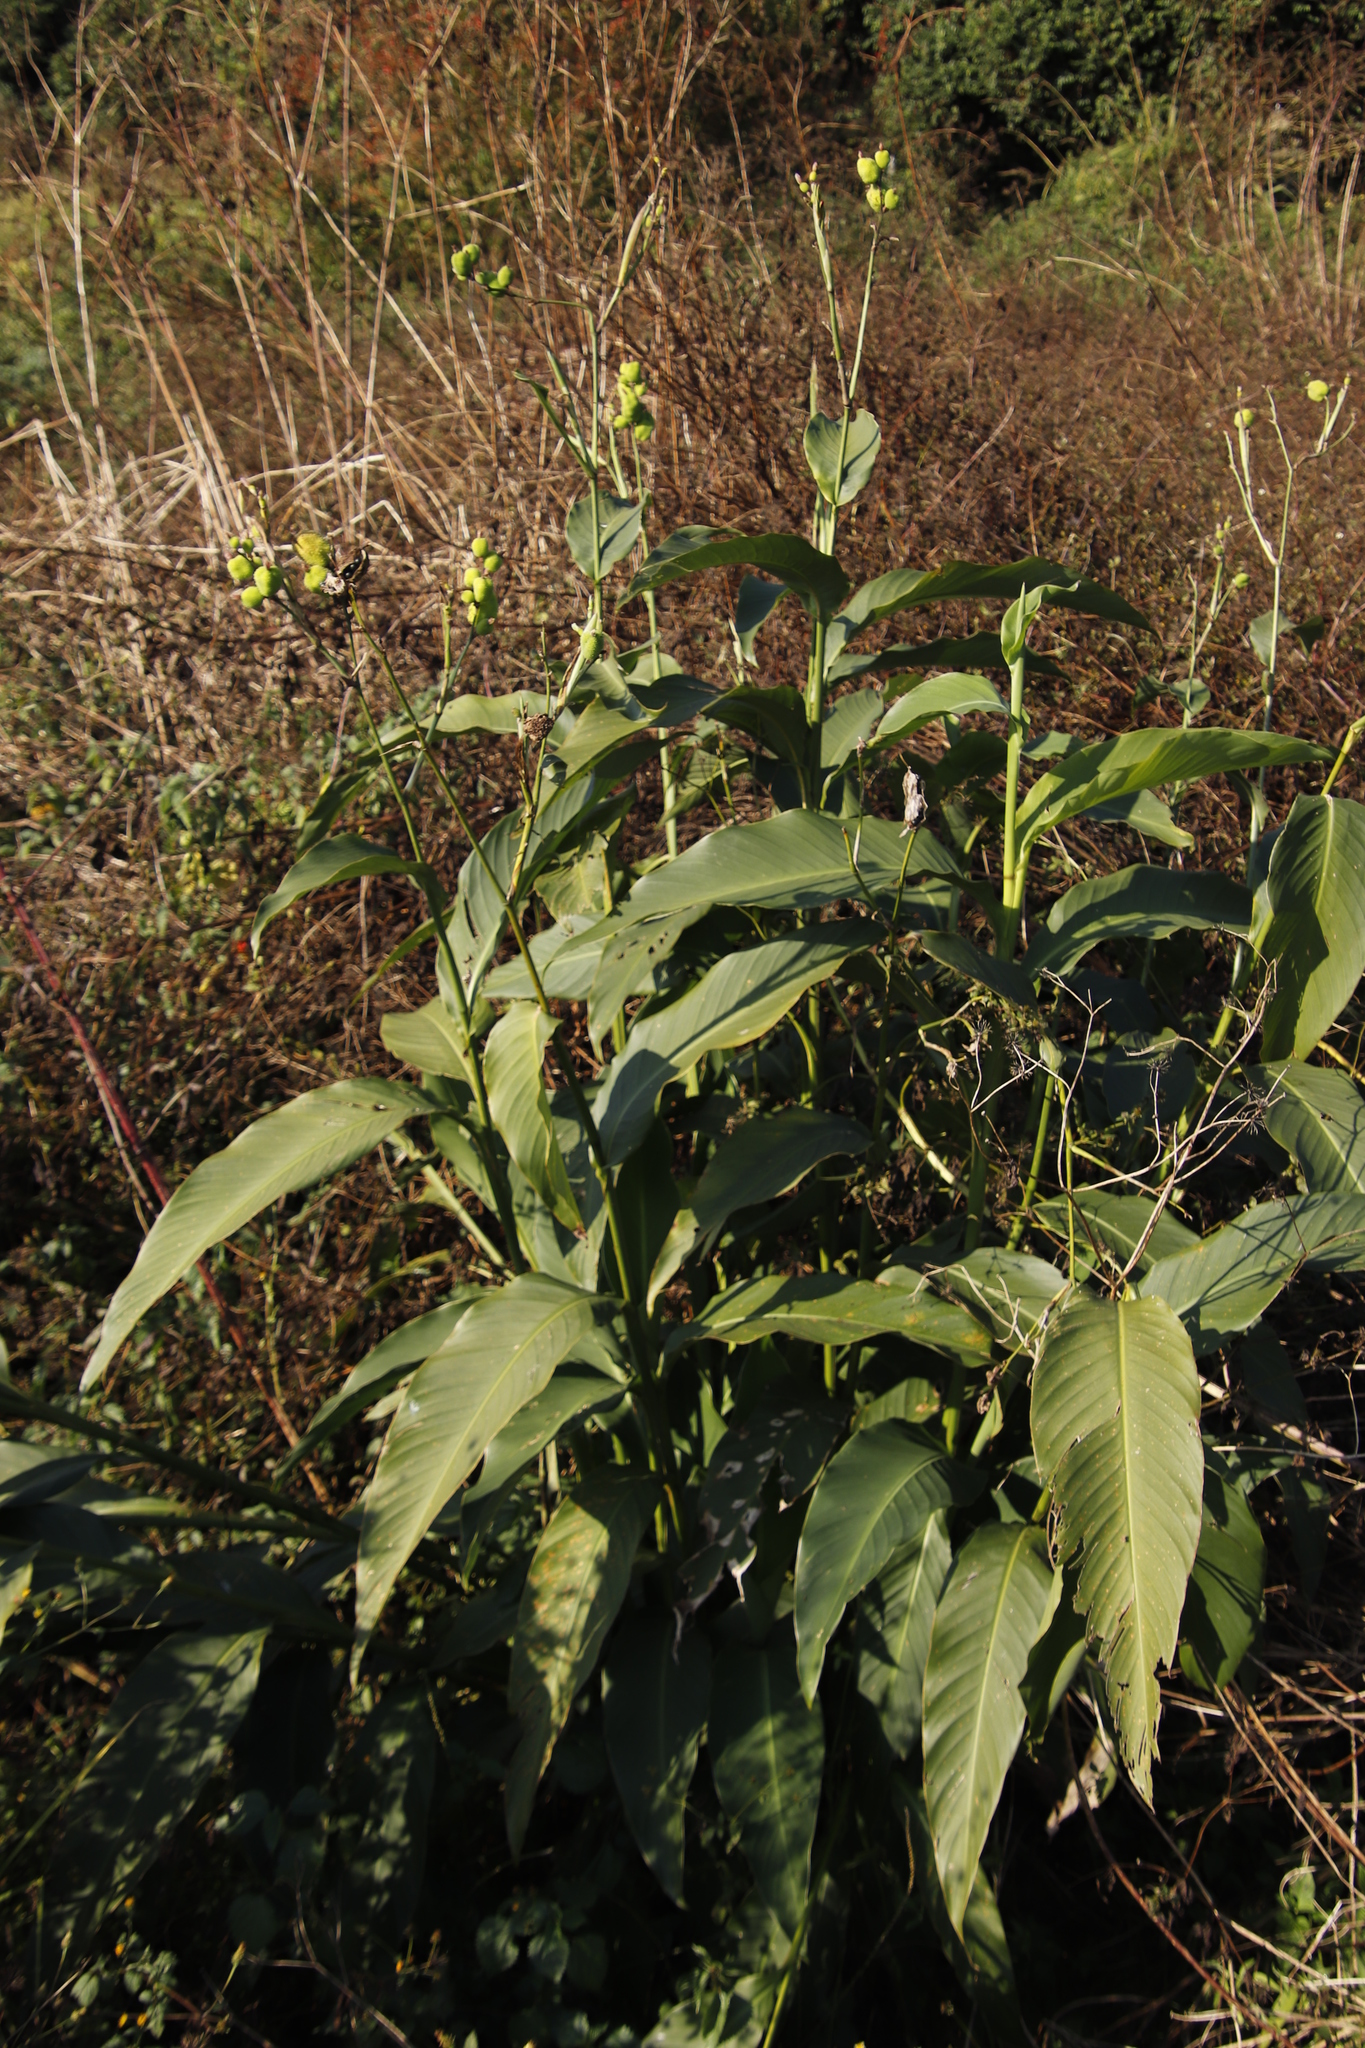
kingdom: Plantae
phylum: Tracheophyta
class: Liliopsida
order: Zingiberales
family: Cannaceae
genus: Canna
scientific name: Canna indica
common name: Indian shot
